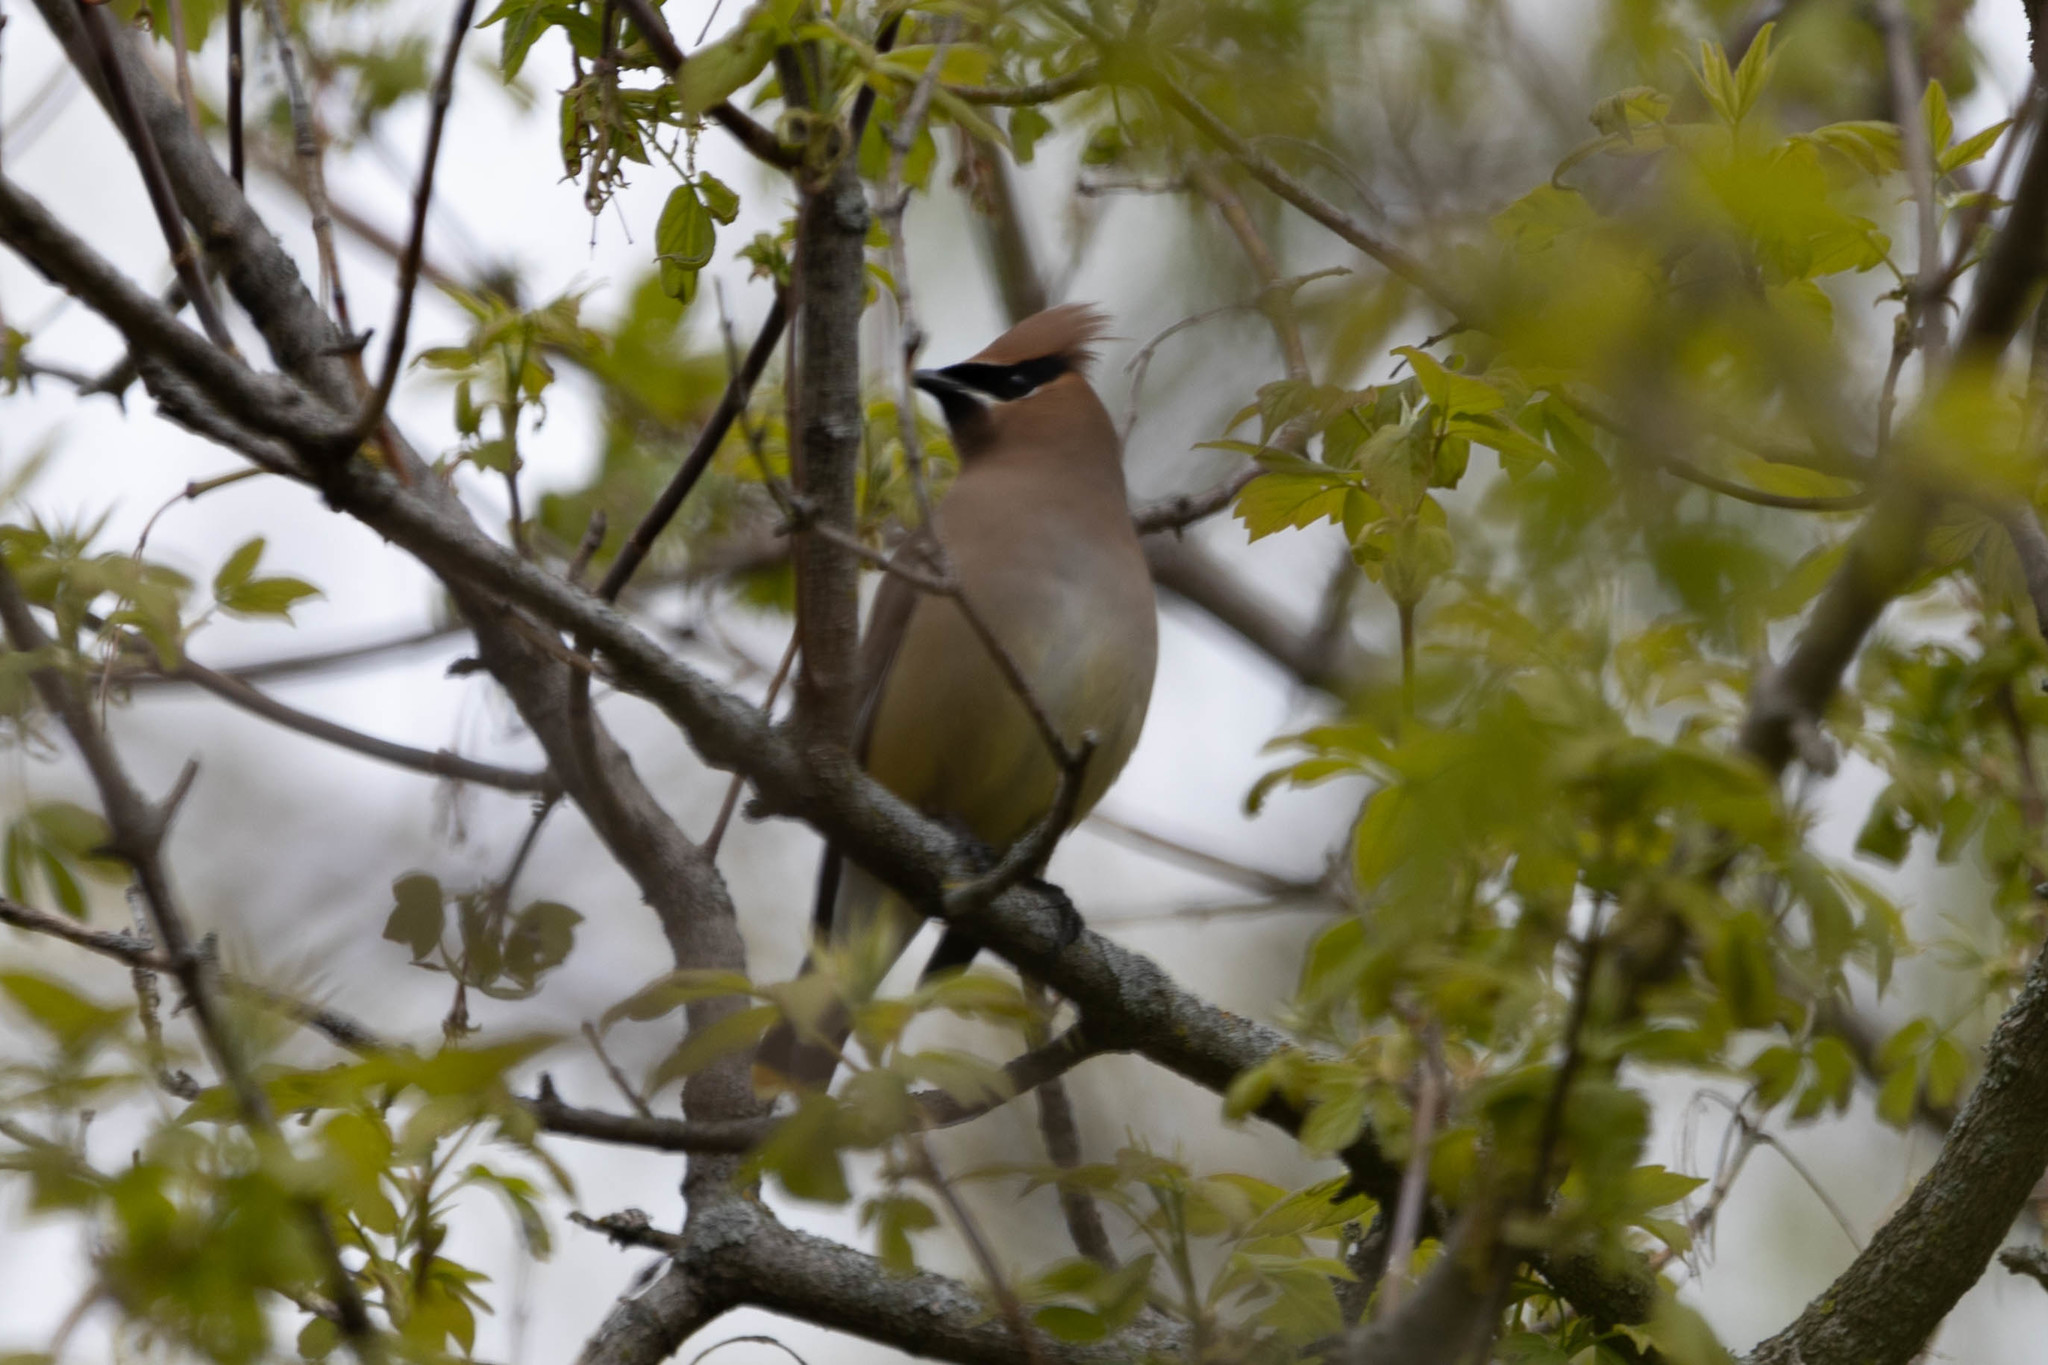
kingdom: Animalia
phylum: Chordata
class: Aves
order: Passeriformes
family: Bombycillidae
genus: Bombycilla
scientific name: Bombycilla cedrorum
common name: Cedar waxwing
